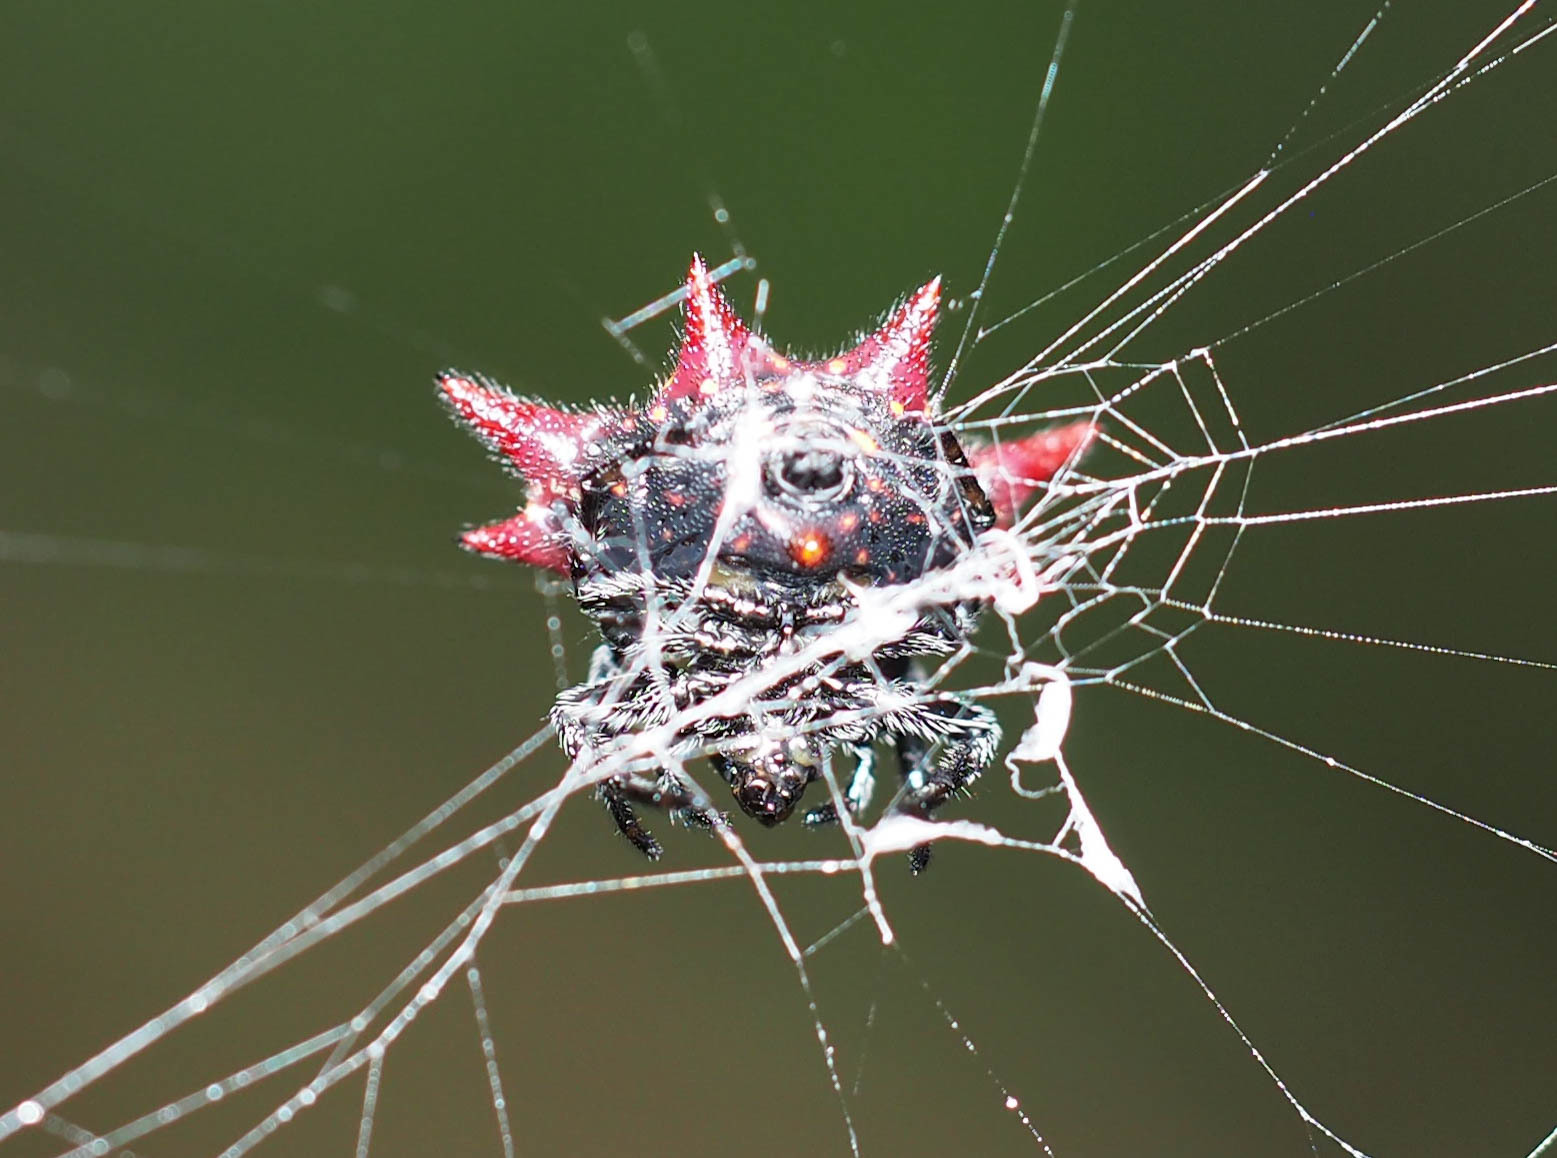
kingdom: Animalia
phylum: Arthropoda
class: Arachnida
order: Araneae
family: Araneidae
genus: Gasteracantha
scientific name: Gasteracantha cancriformis
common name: Orb weavers
